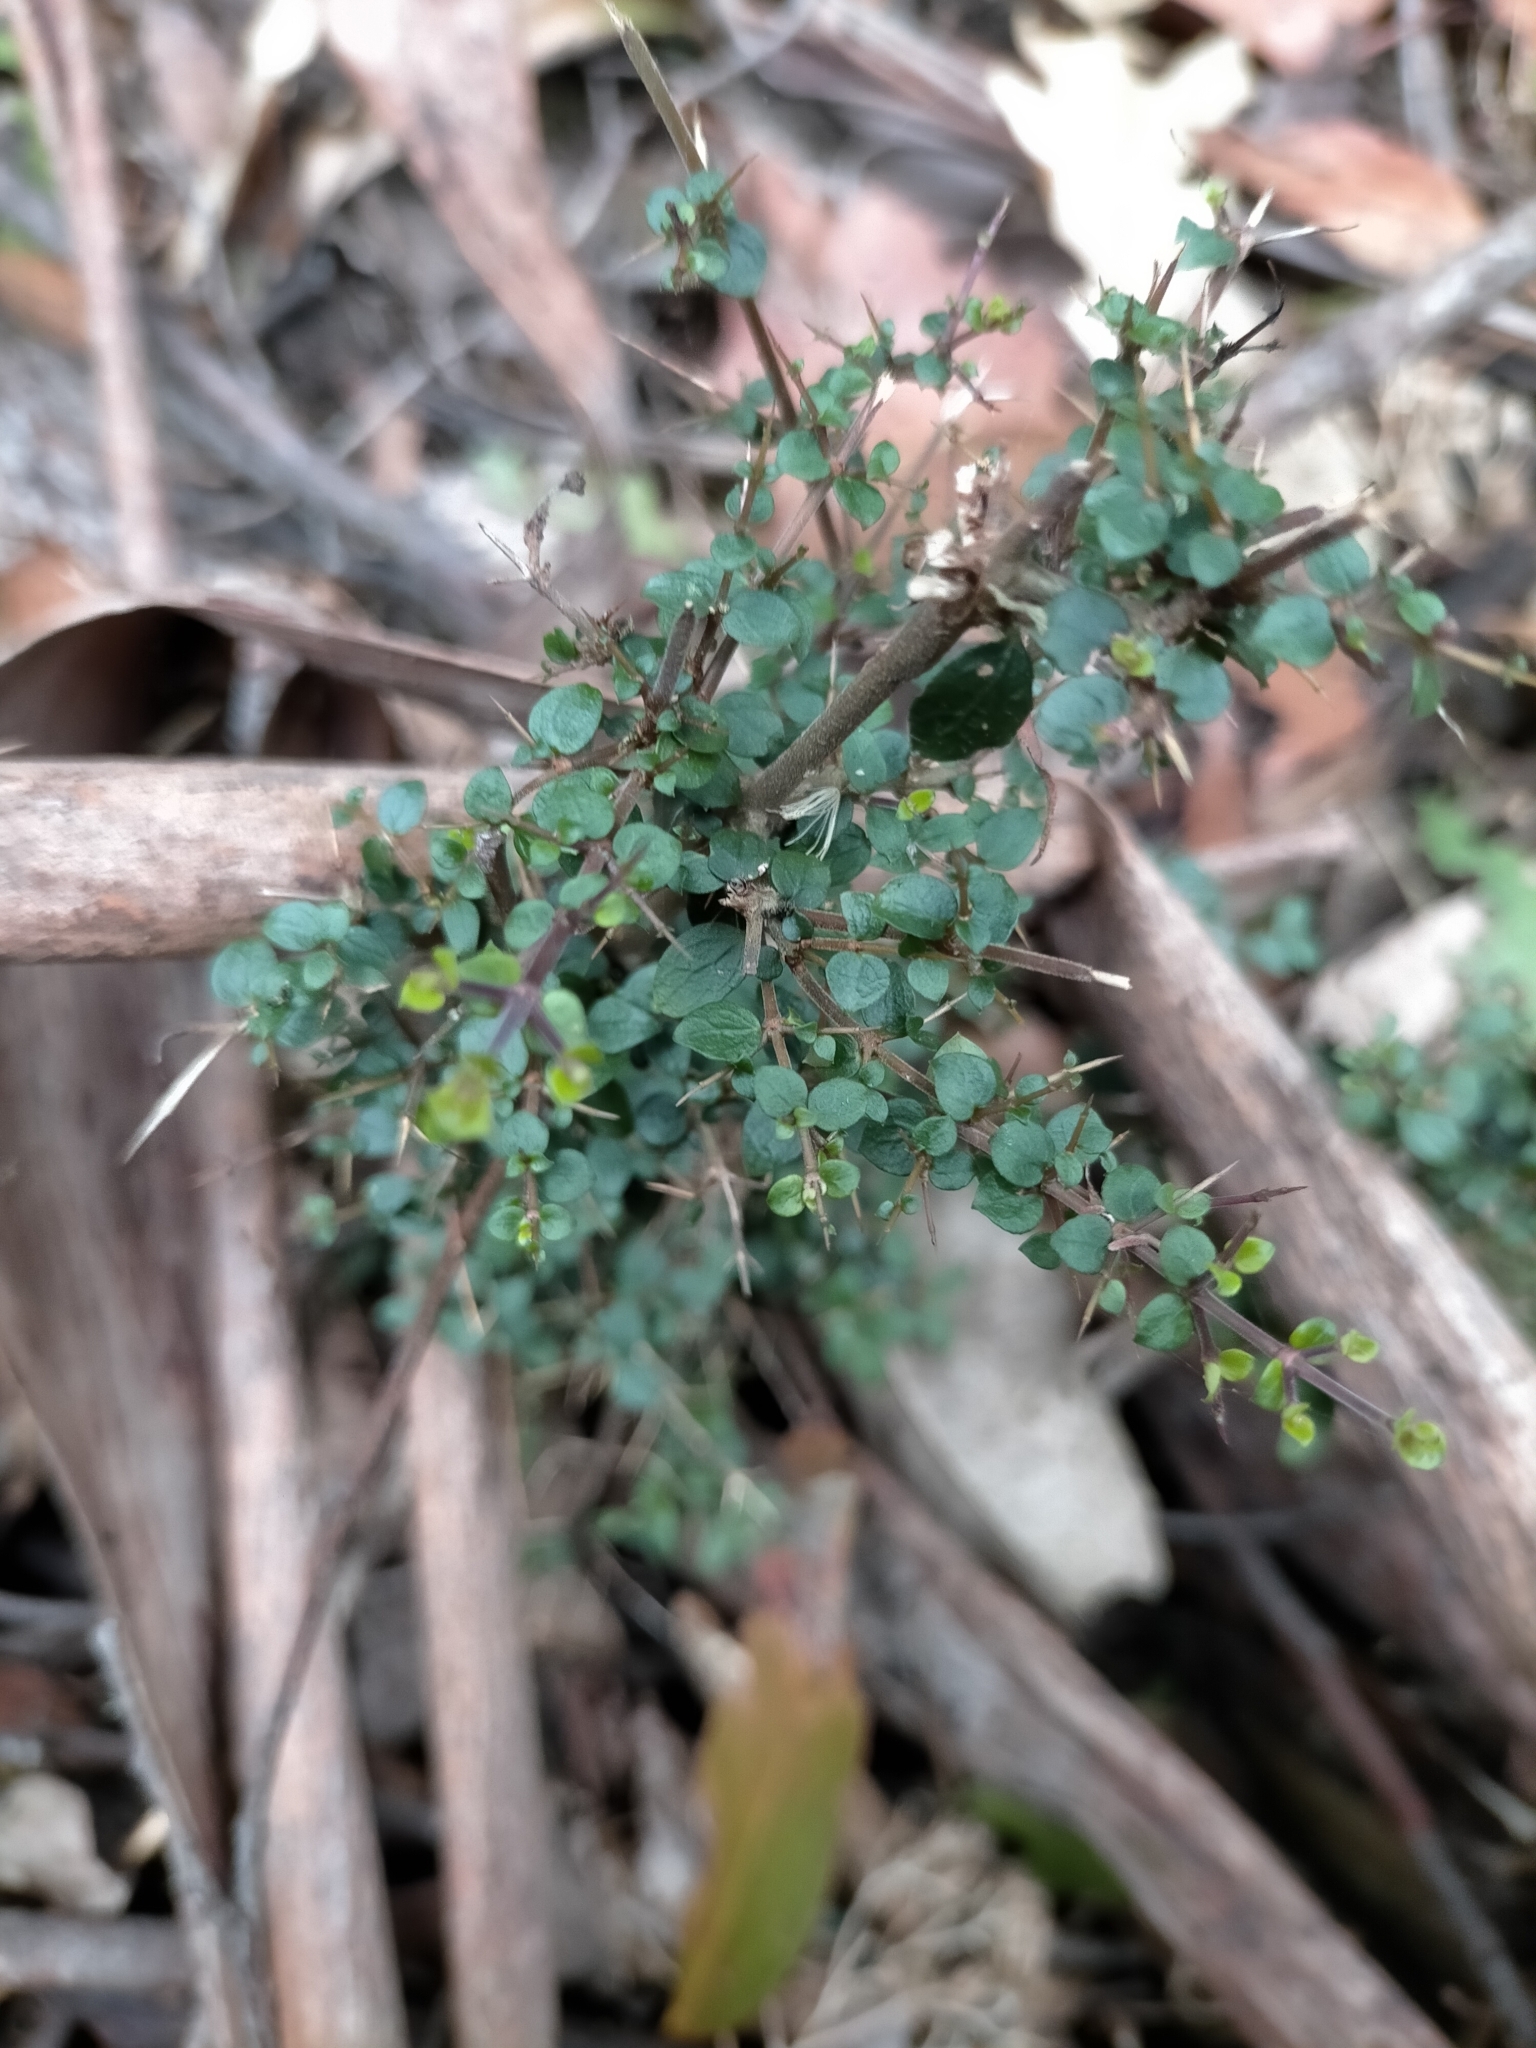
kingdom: Plantae
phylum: Tracheophyta
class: Magnoliopsida
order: Gentianales
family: Rubiaceae
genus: Coprosma
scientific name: Coprosma quadrifida
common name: Prickly currantbush
